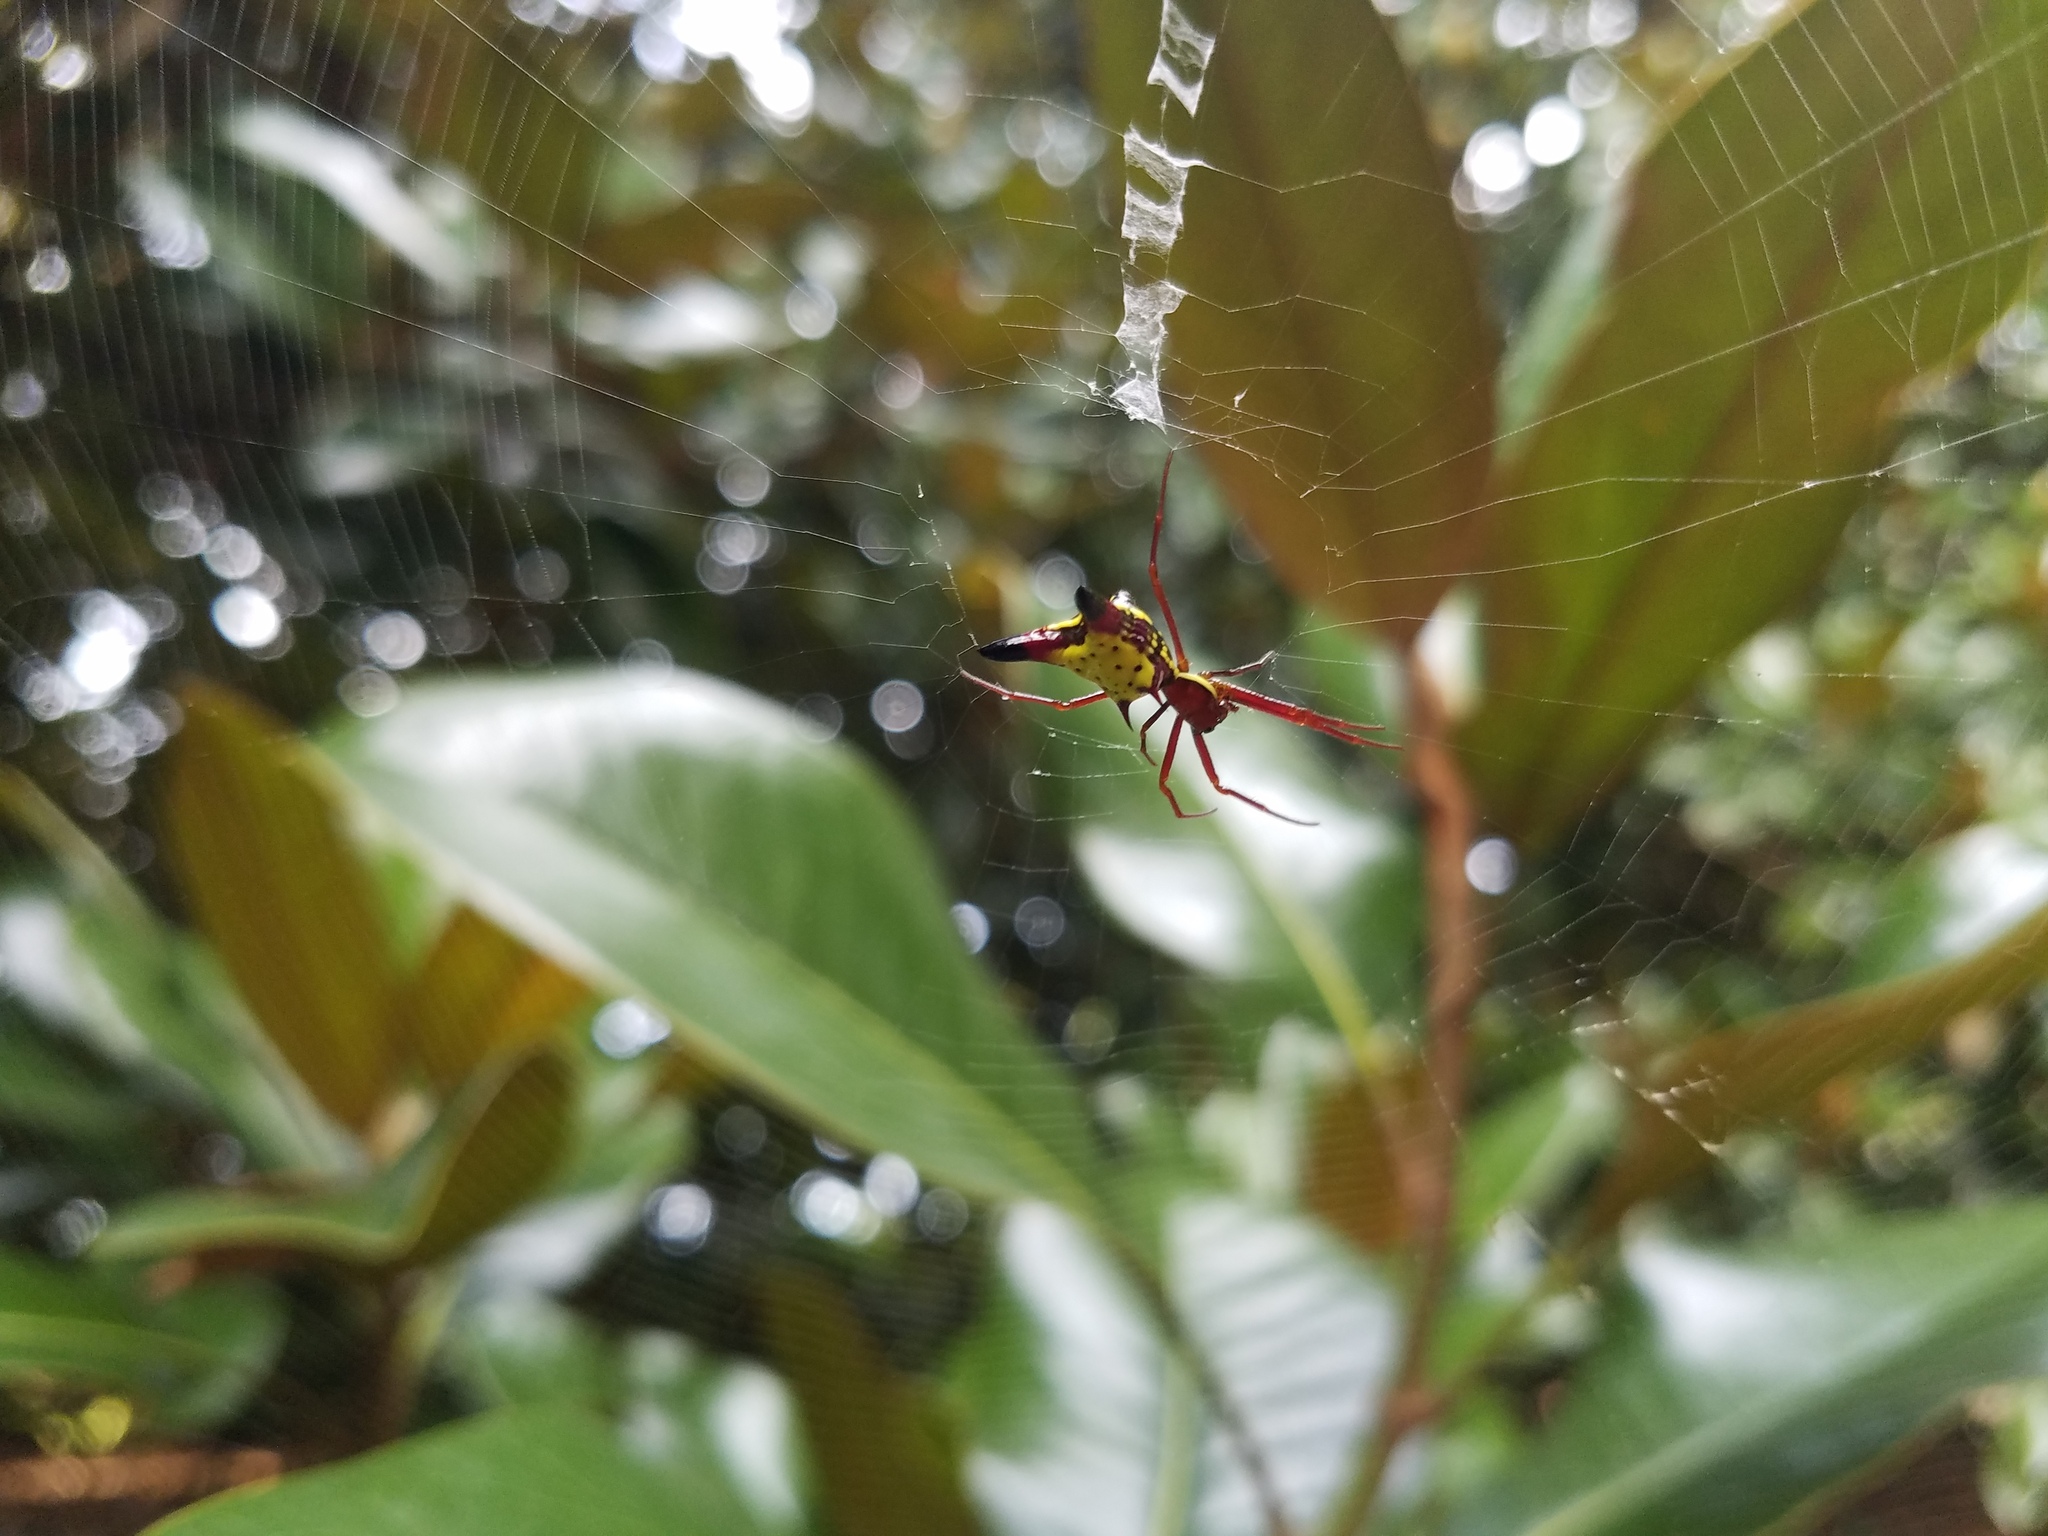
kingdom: Animalia
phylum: Arthropoda
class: Arachnida
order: Araneae
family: Araneidae
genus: Micrathena
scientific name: Micrathena sagittata
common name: Orb weavers
